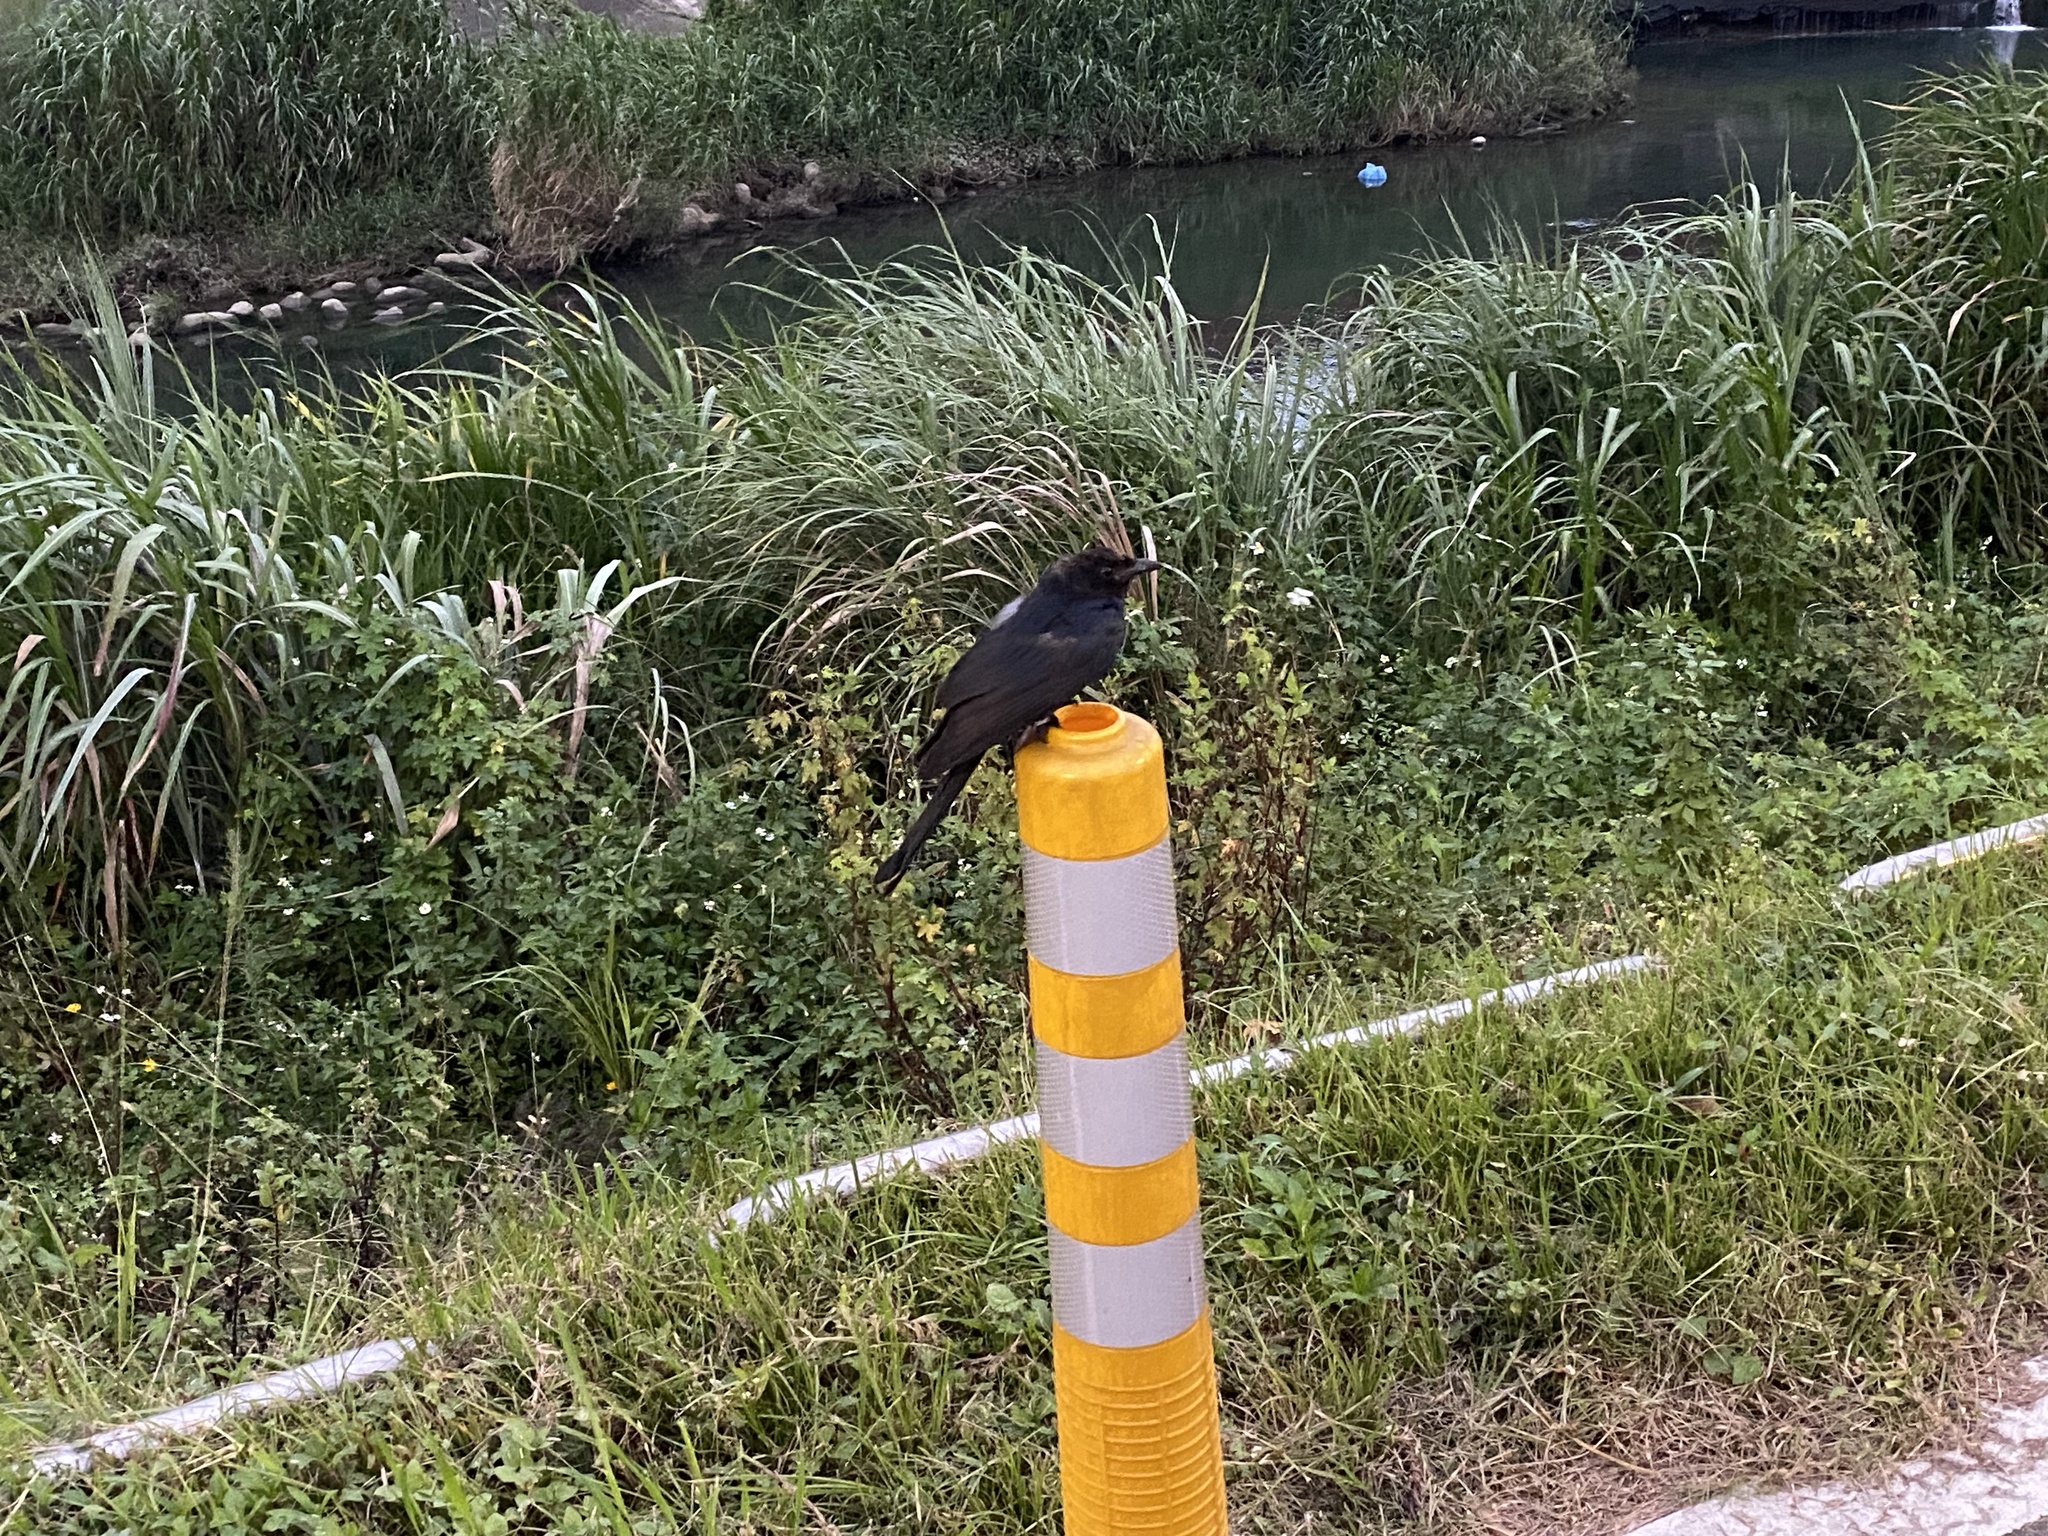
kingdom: Animalia
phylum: Chordata
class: Aves
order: Passeriformes
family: Dicruridae
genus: Dicrurus
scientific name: Dicrurus macrocercus
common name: Black drongo
